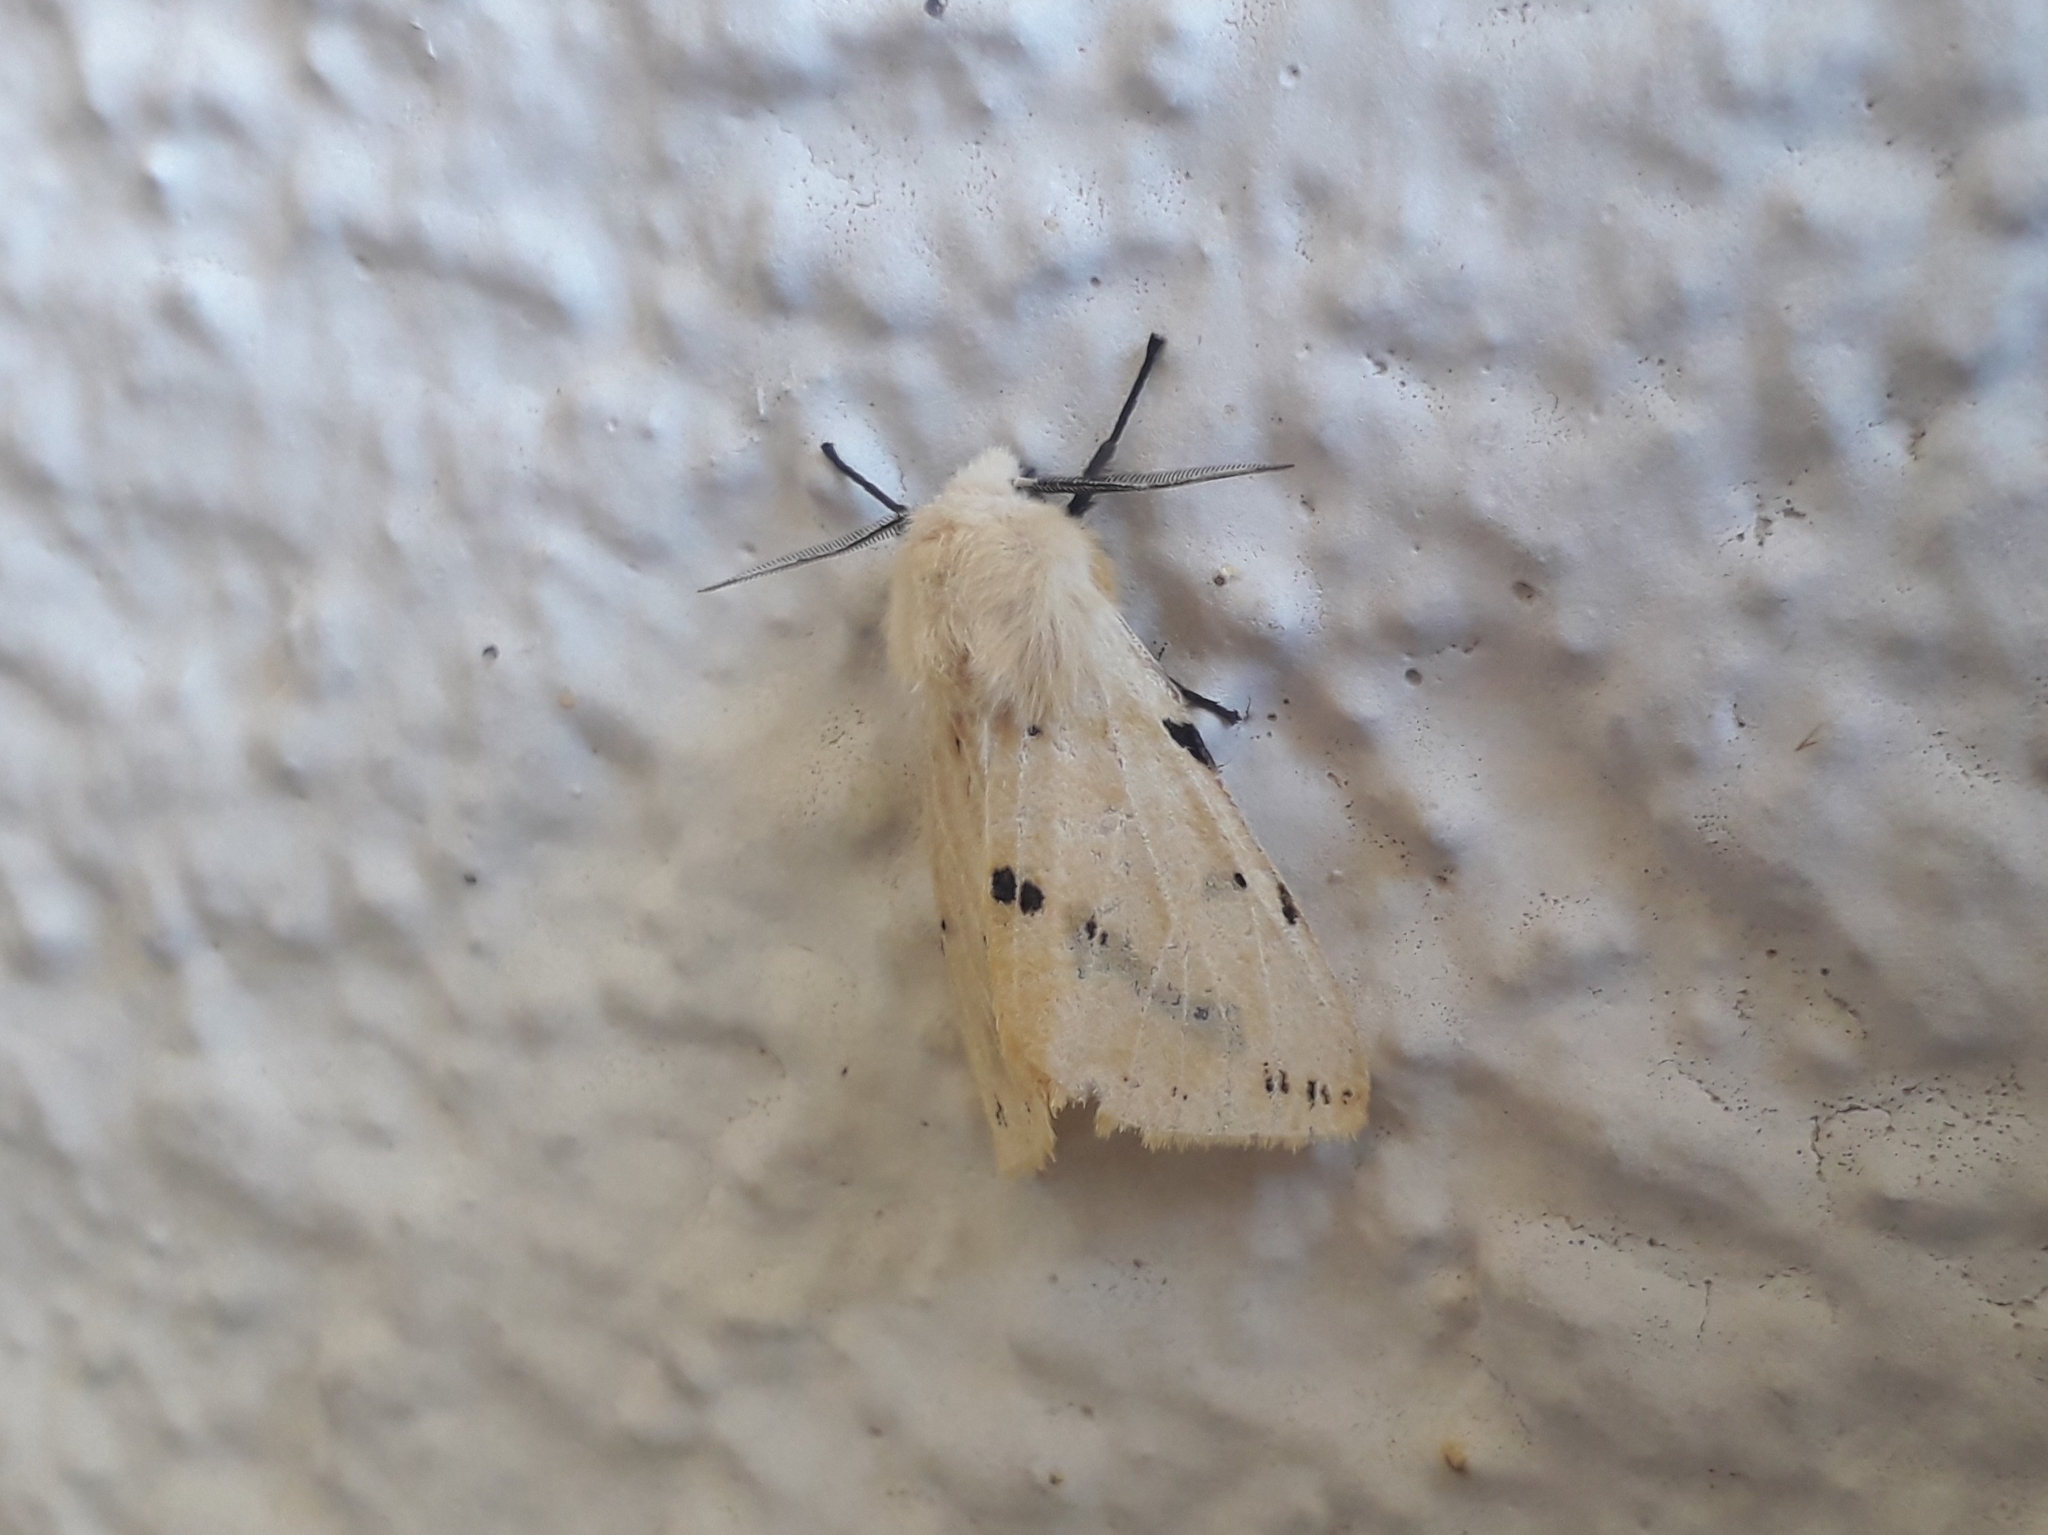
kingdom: Animalia
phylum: Arthropoda
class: Insecta
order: Lepidoptera
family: Erebidae
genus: Spilarctia
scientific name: Spilarctia lutea
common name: Buff ermine
